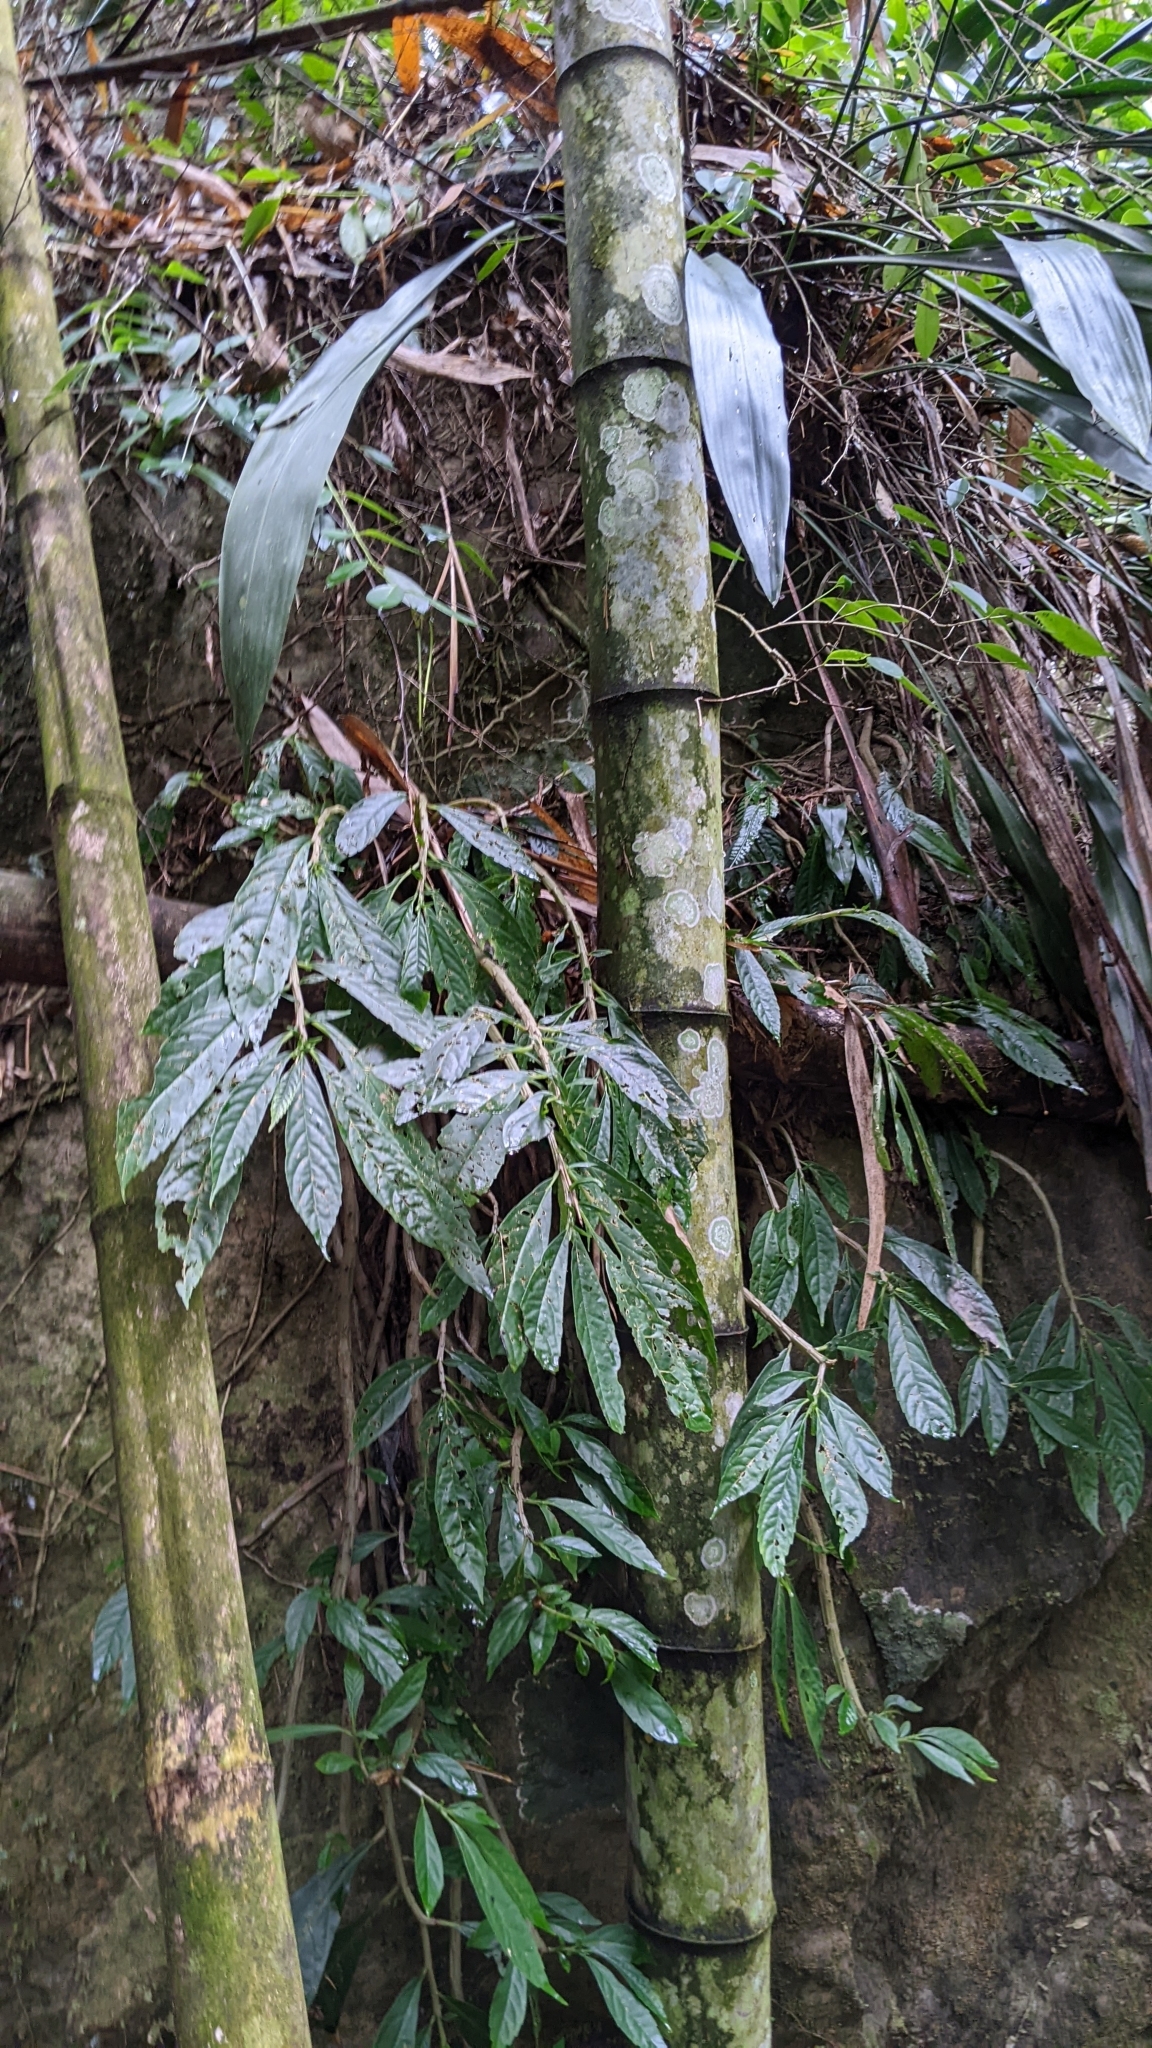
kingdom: Plantae
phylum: Tracheophyta
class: Magnoliopsida
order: Rosales
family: Urticaceae
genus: Procris
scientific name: Procris
